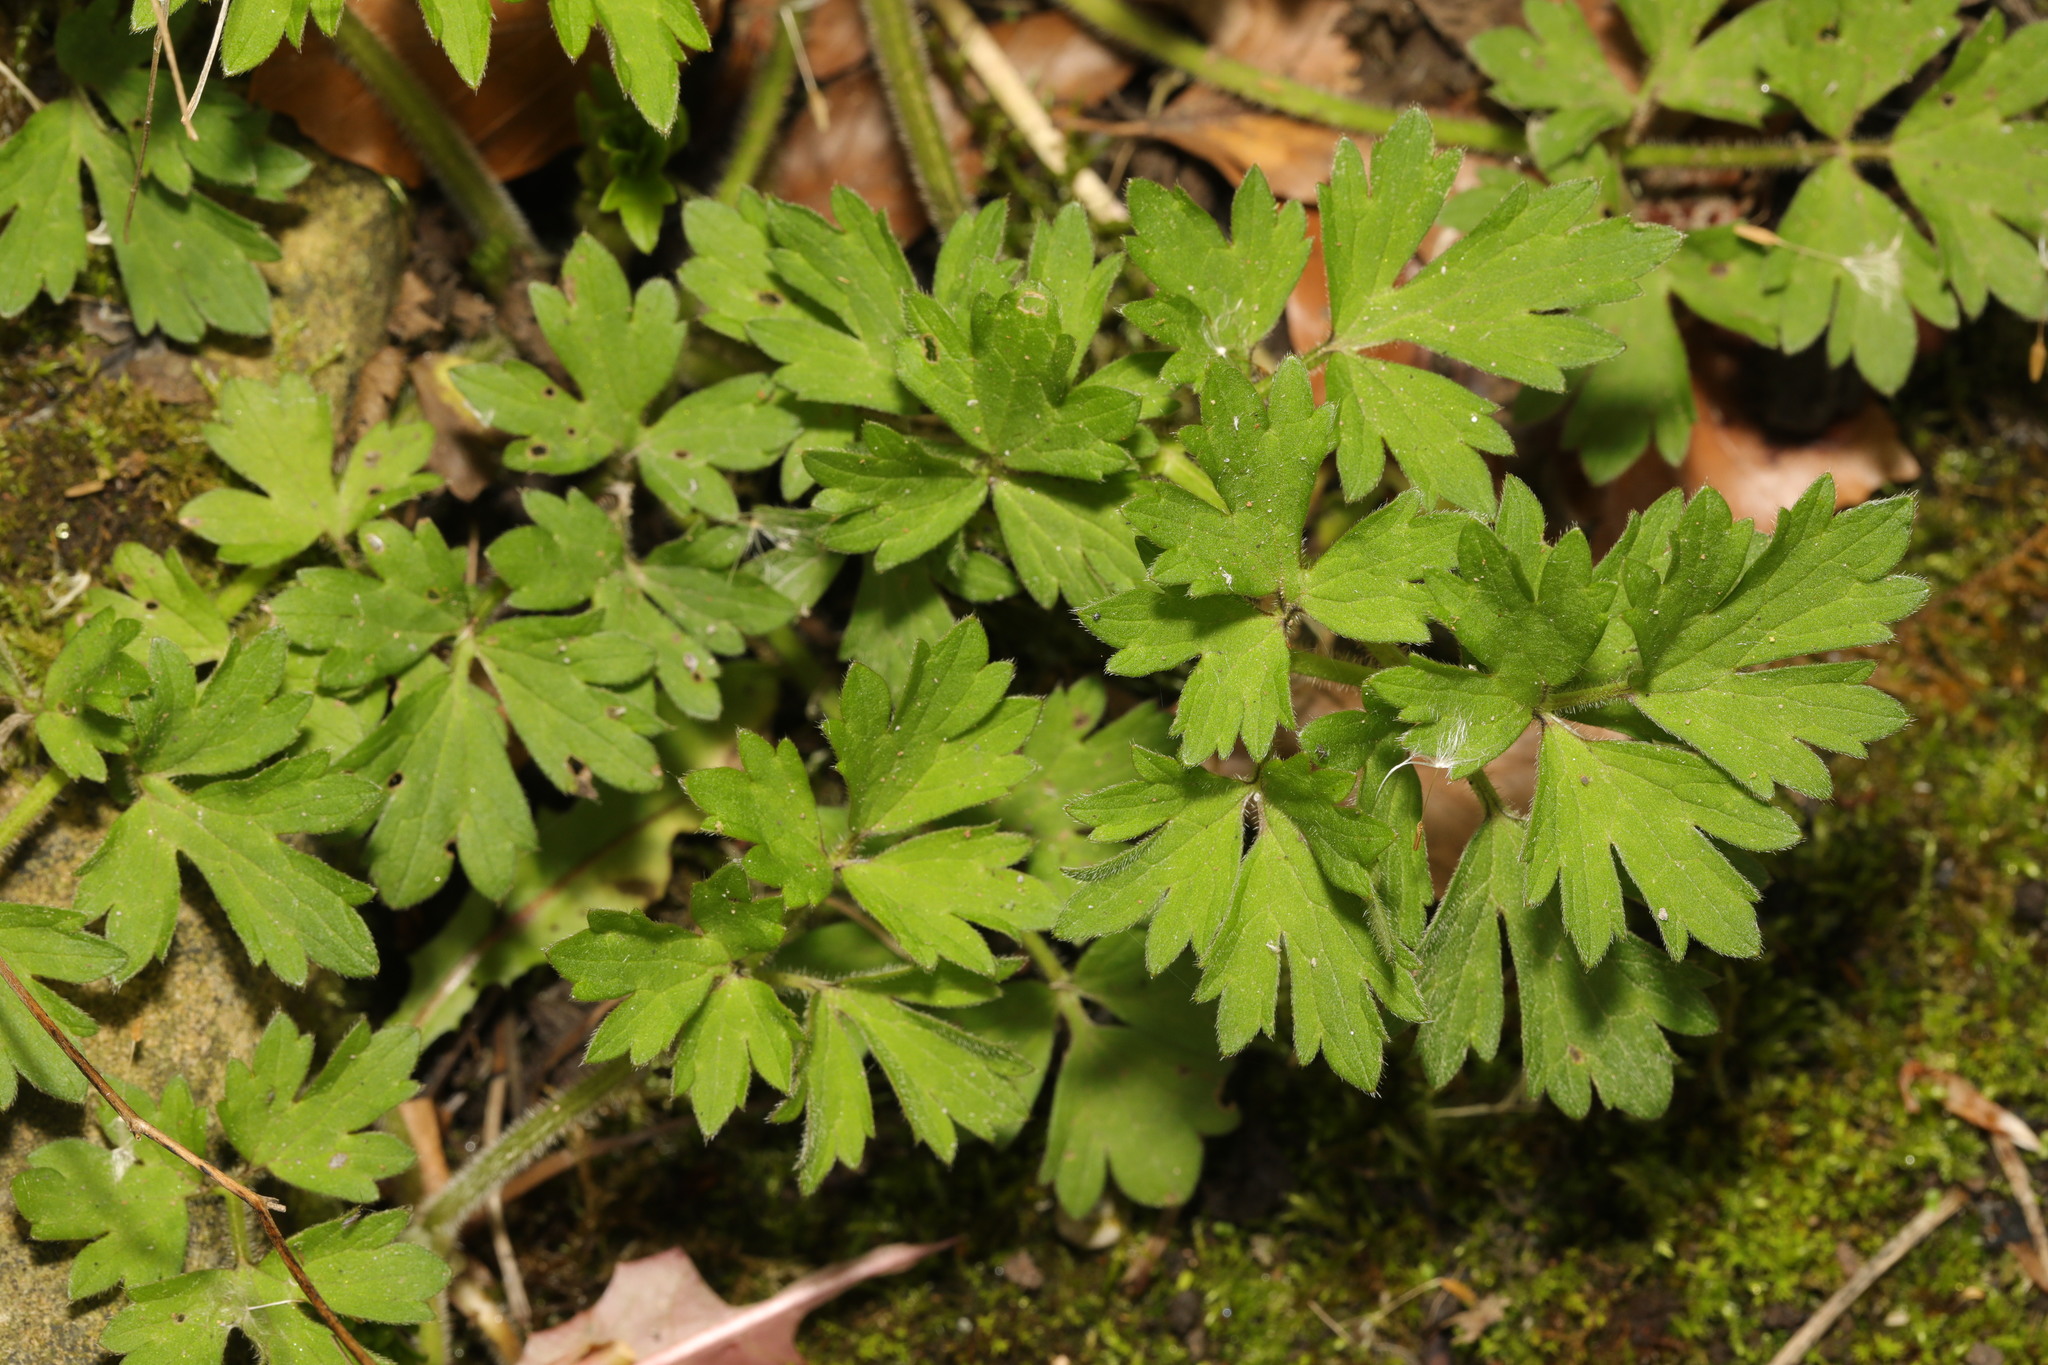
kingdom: Plantae
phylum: Tracheophyta
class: Magnoliopsida
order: Ranunculales
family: Ranunculaceae
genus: Ranunculus
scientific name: Ranunculus repens
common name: Creeping buttercup
